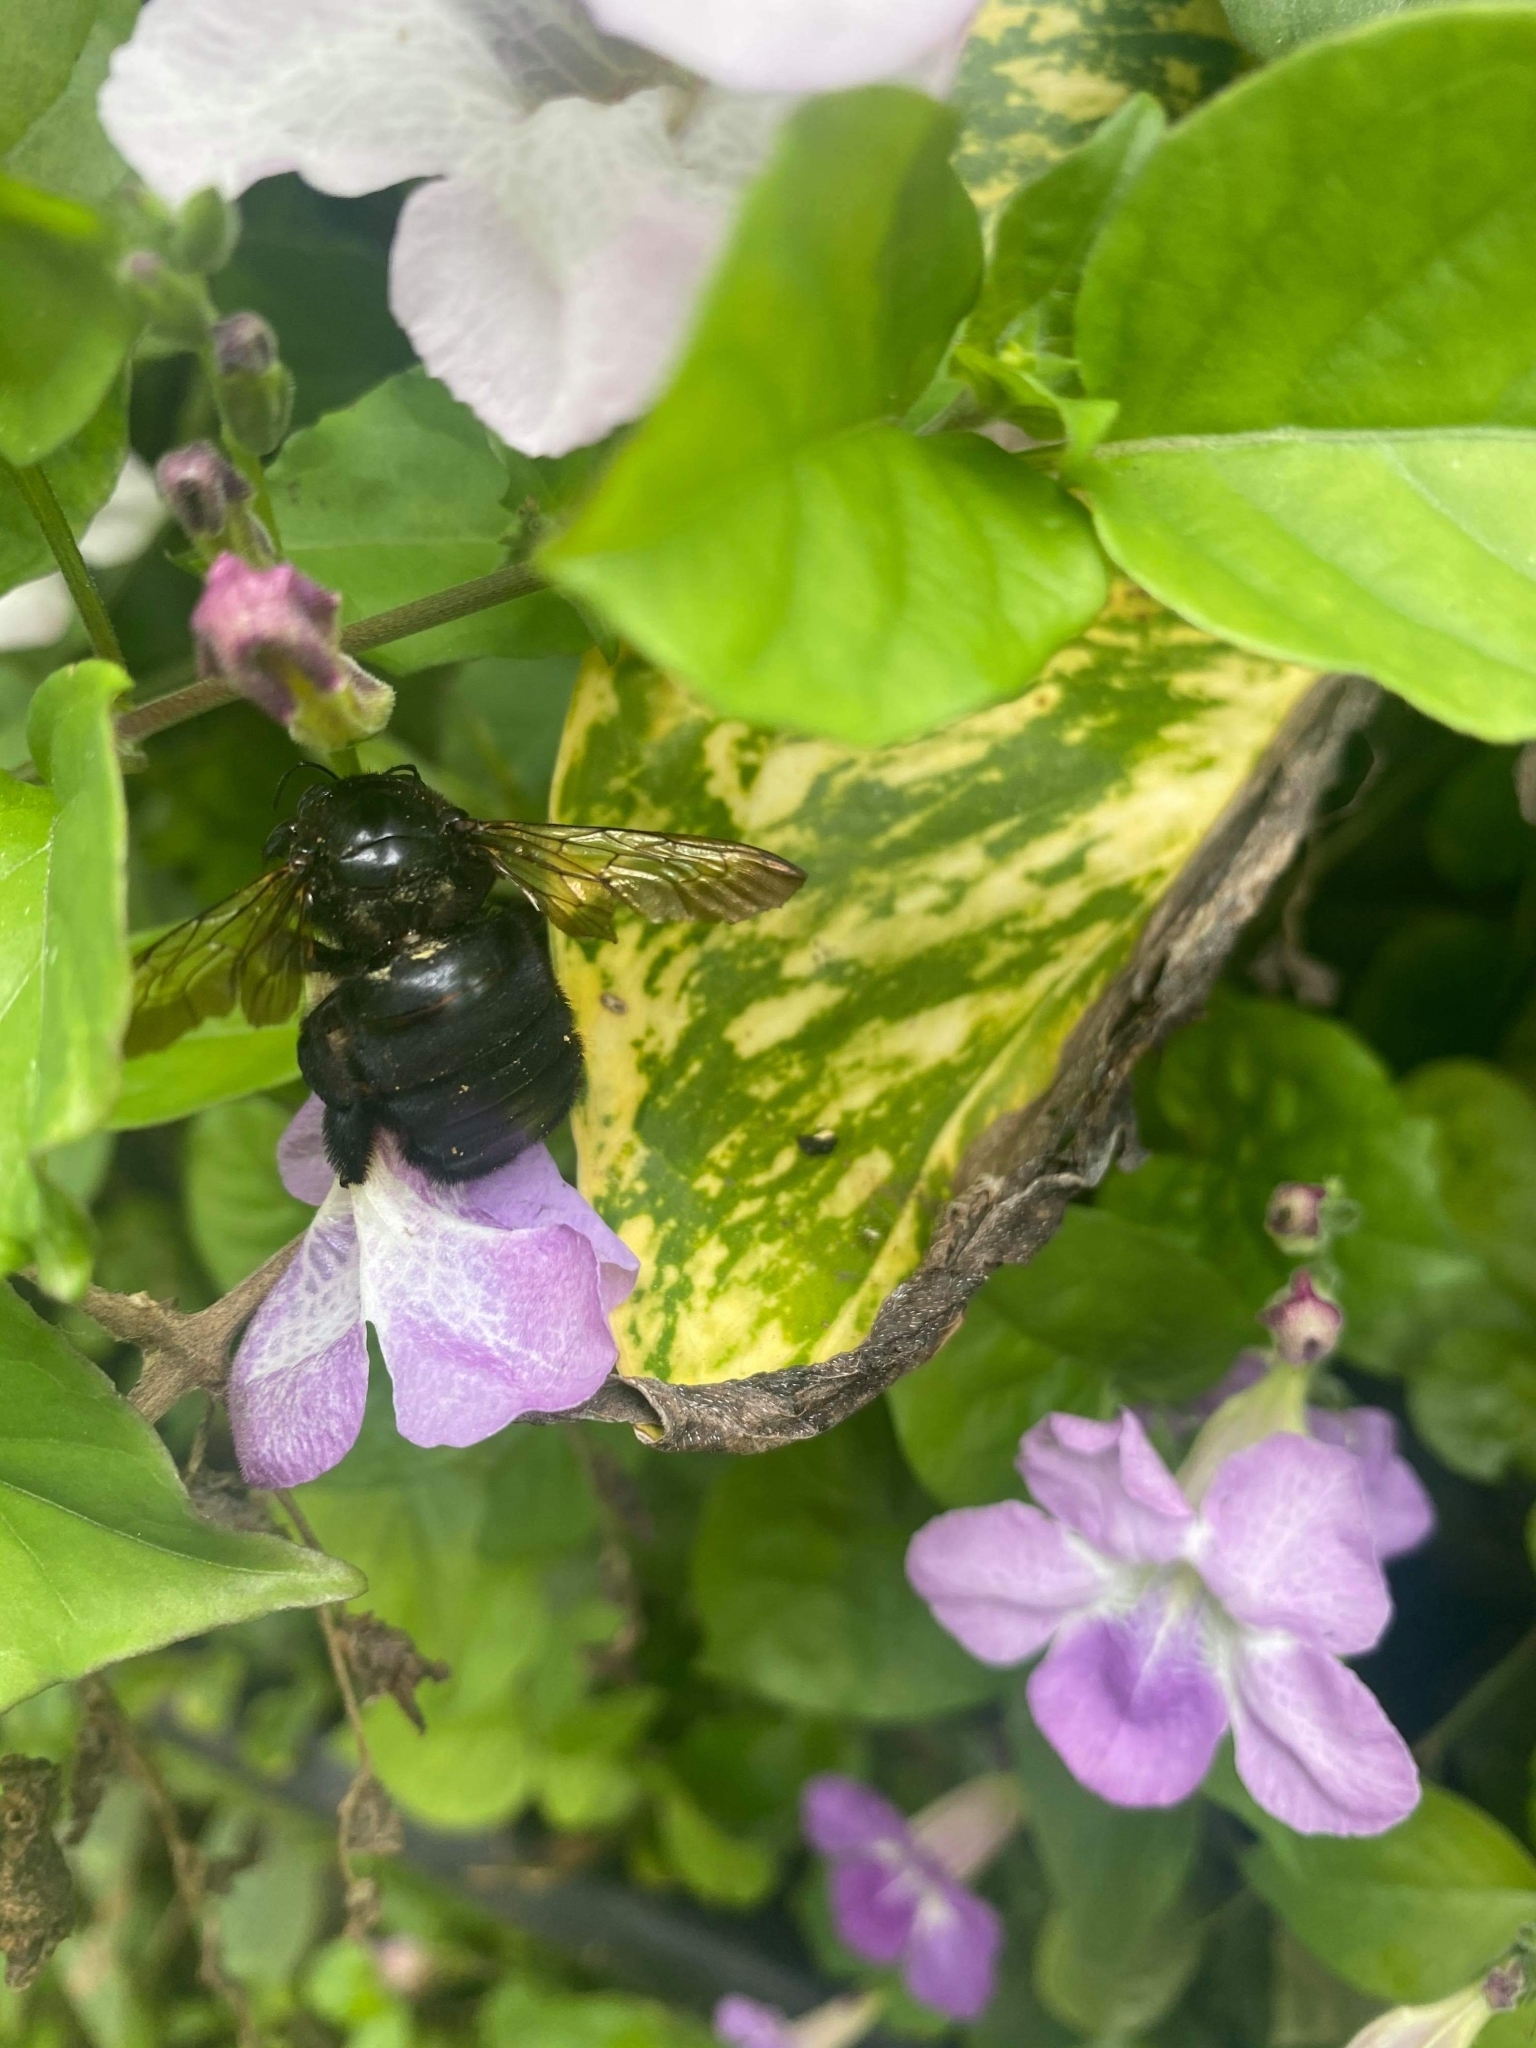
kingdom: Animalia
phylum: Arthropoda
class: Insecta
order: Hymenoptera
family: Apidae
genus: Xylocopa
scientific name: Xylocopa sonorina
